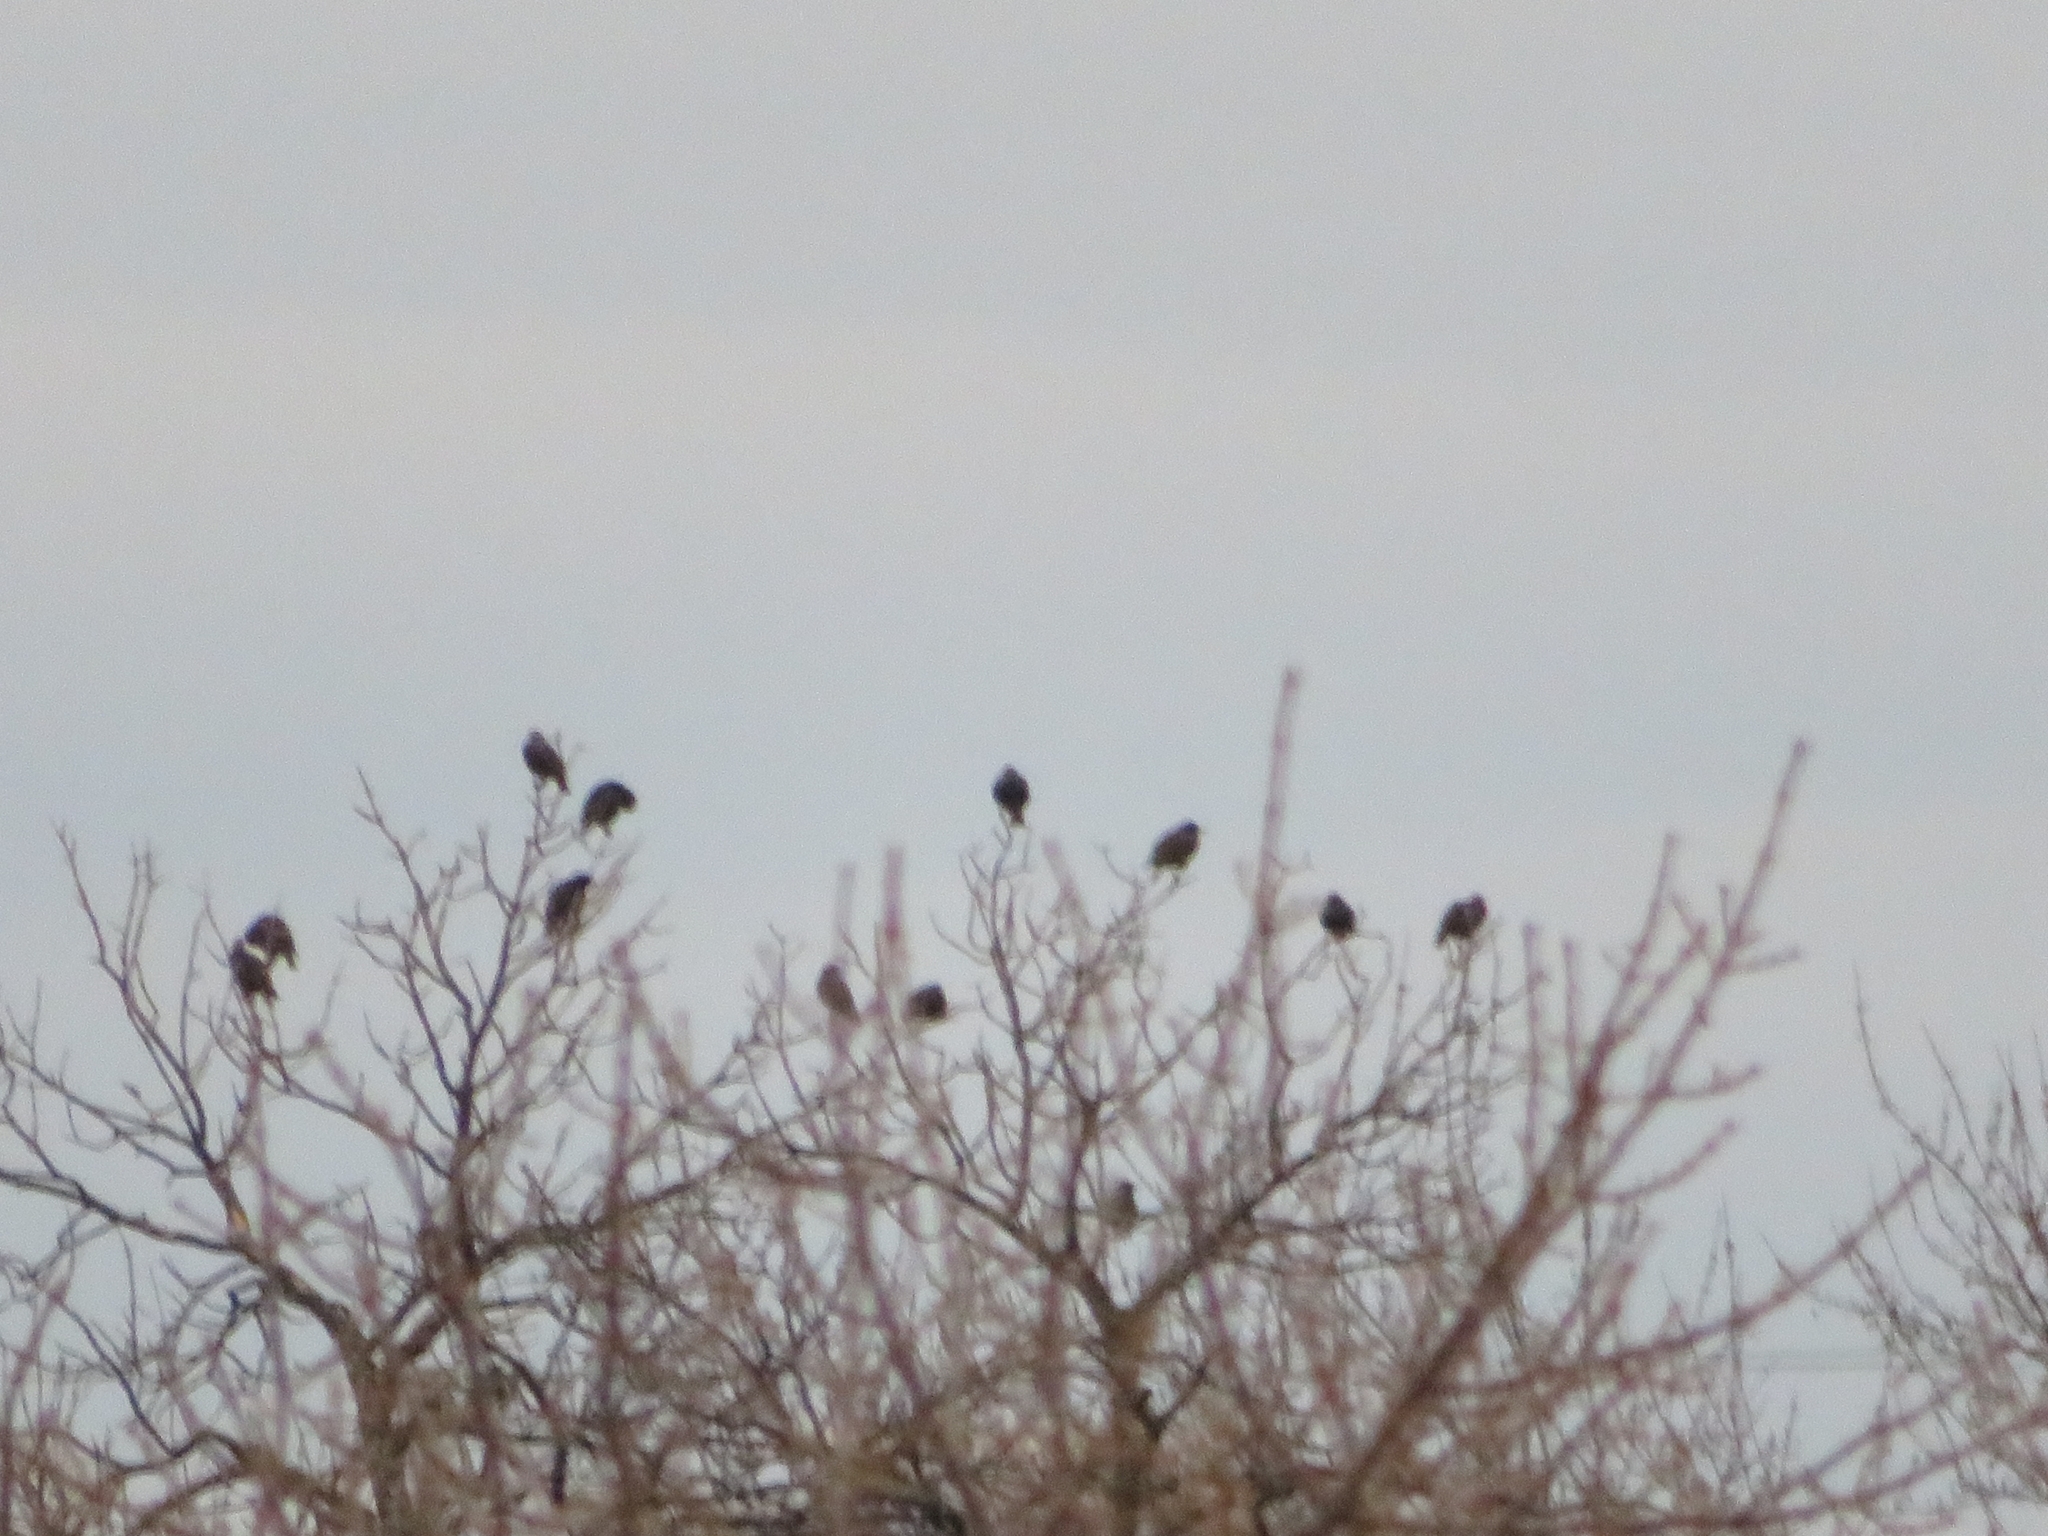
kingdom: Animalia
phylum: Chordata
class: Aves
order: Passeriformes
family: Sturnidae
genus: Sturnus
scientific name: Sturnus vulgaris
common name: Common starling
